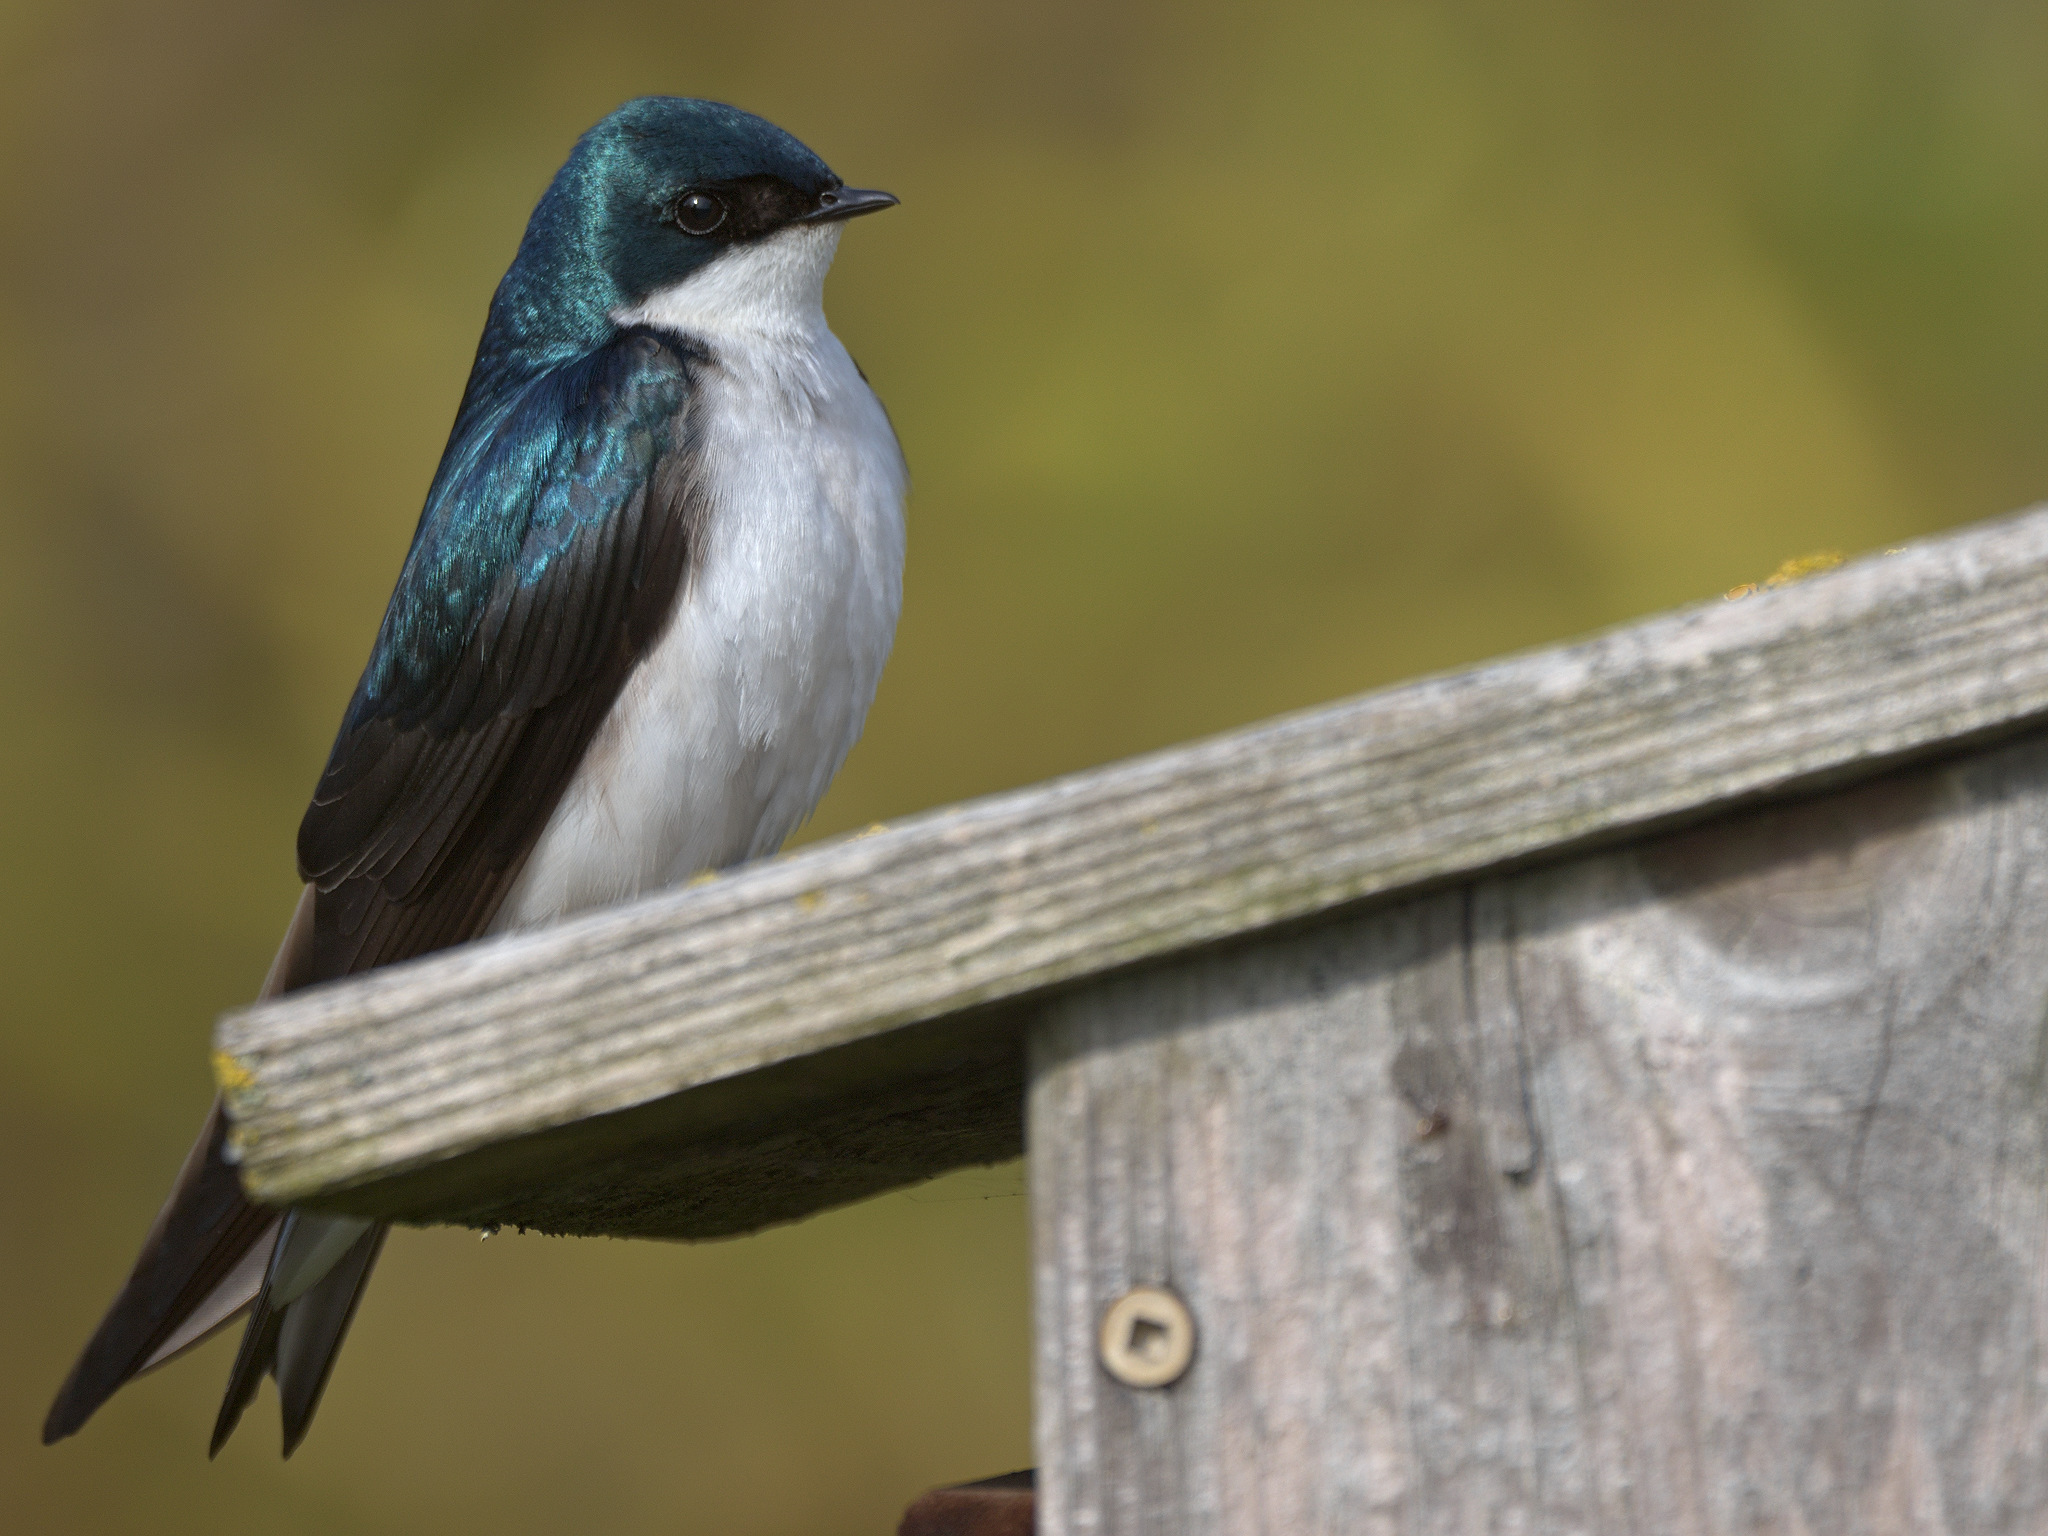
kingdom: Animalia
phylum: Chordata
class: Aves
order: Passeriformes
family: Hirundinidae
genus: Tachycineta
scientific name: Tachycineta bicolor
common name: Tree swallow
